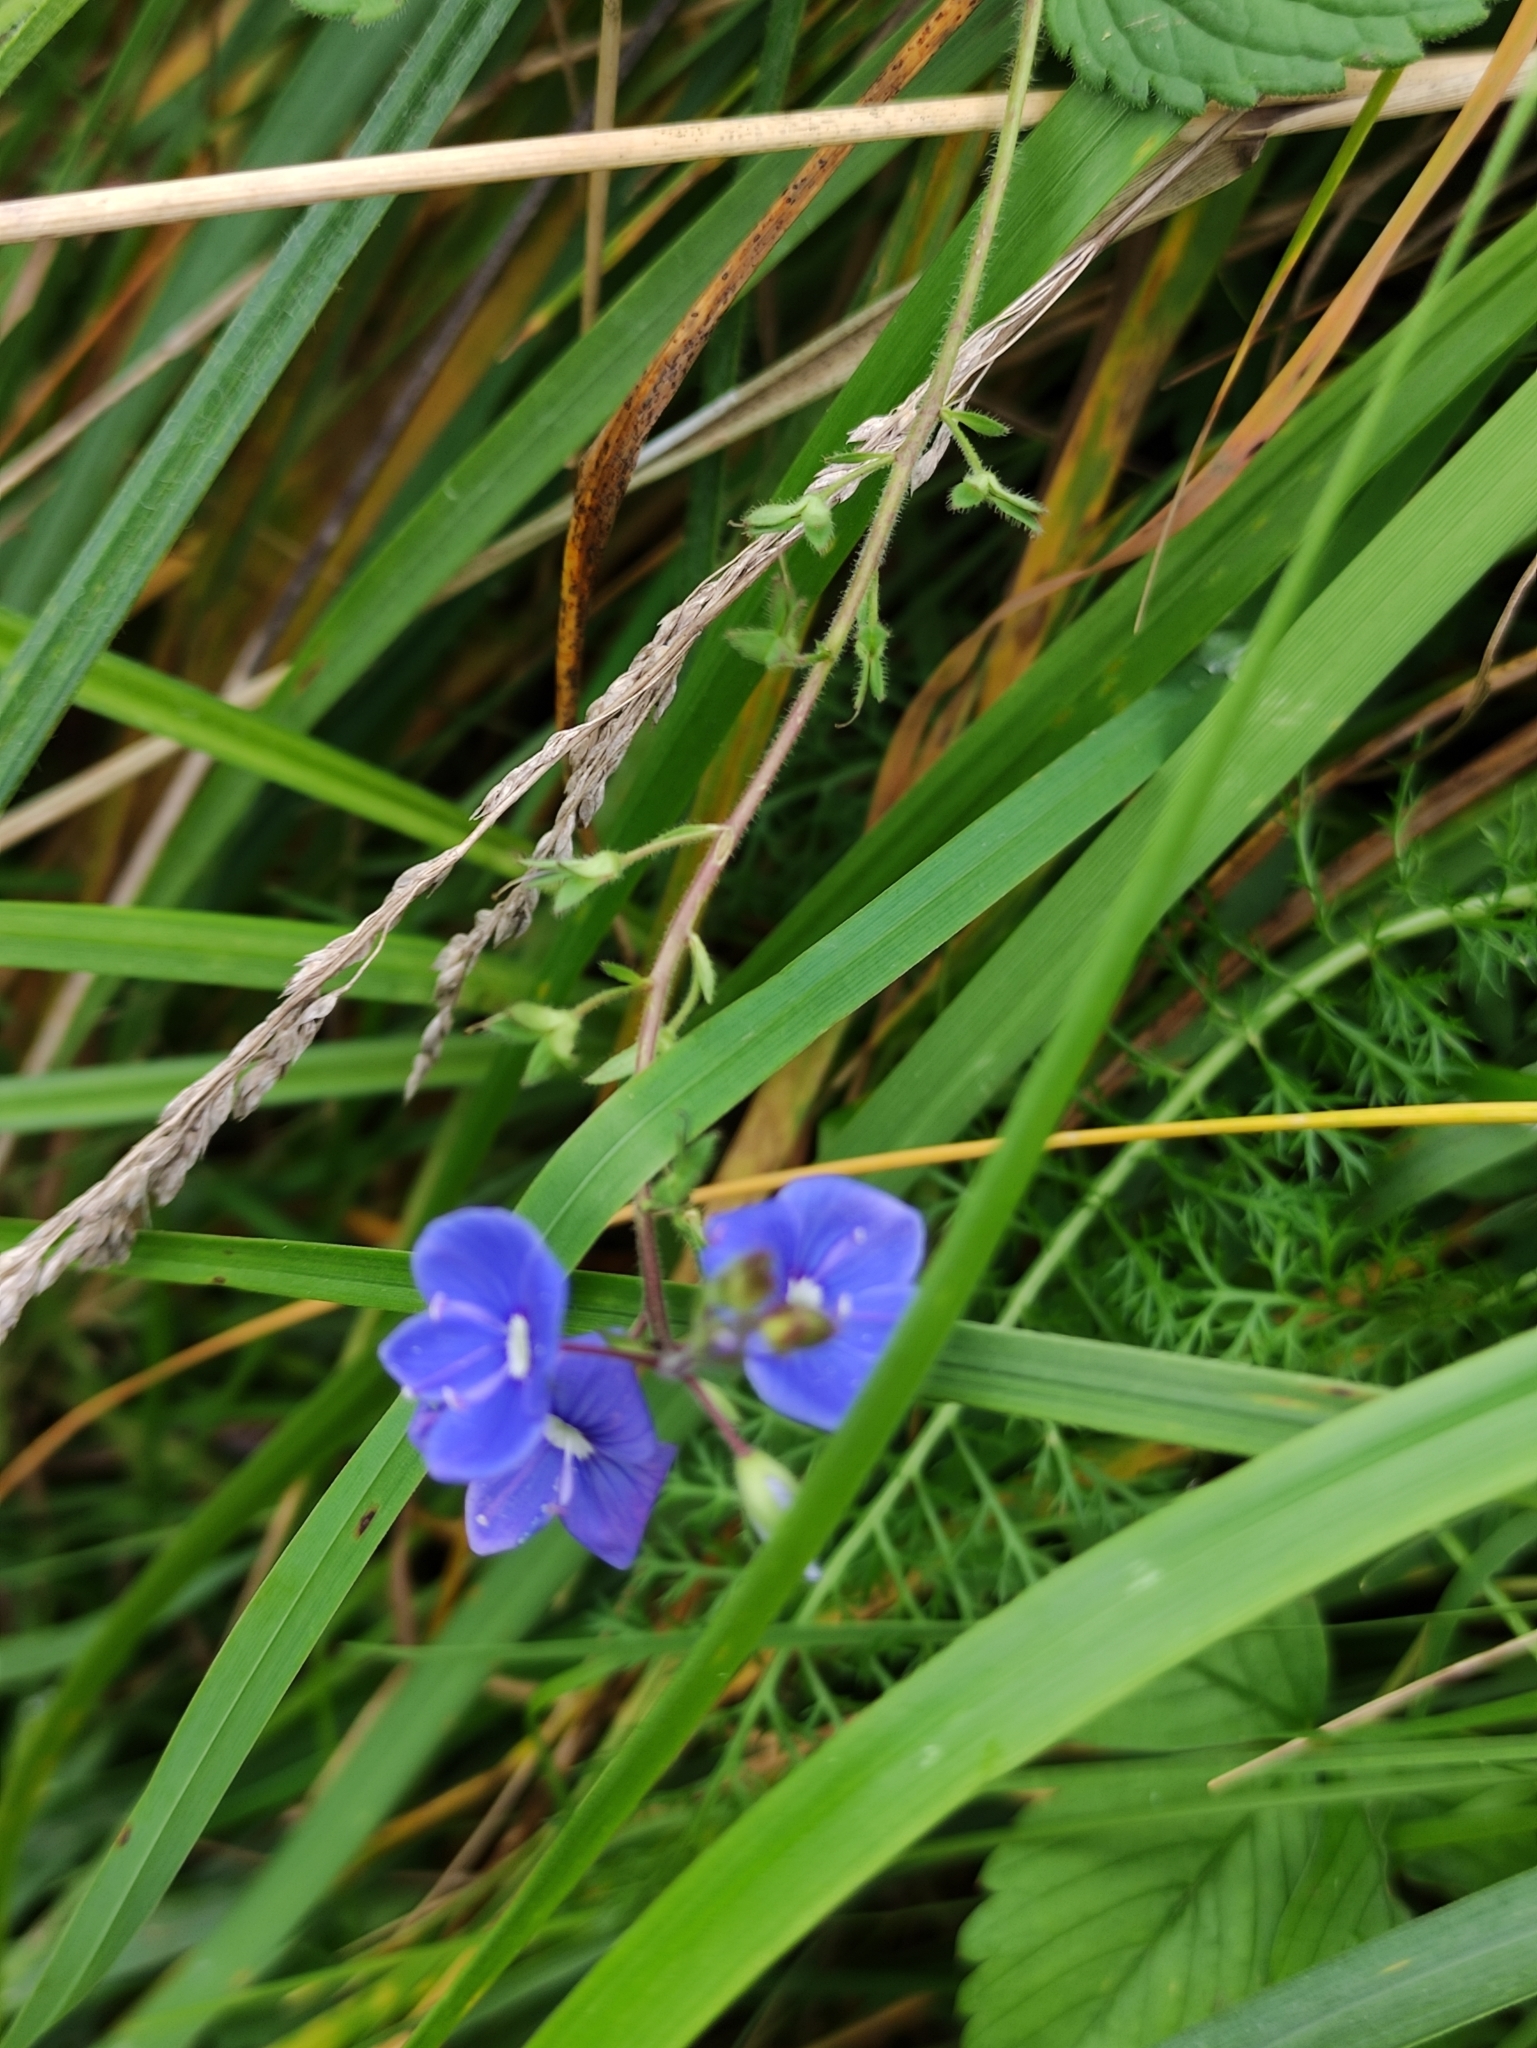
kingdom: Plantae
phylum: Tracheophyta
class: Magnoliopsida
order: Lamiales
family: Plantaginaceae
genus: Veronica
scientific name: Veronica chamaedrys
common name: Germander speedwell
